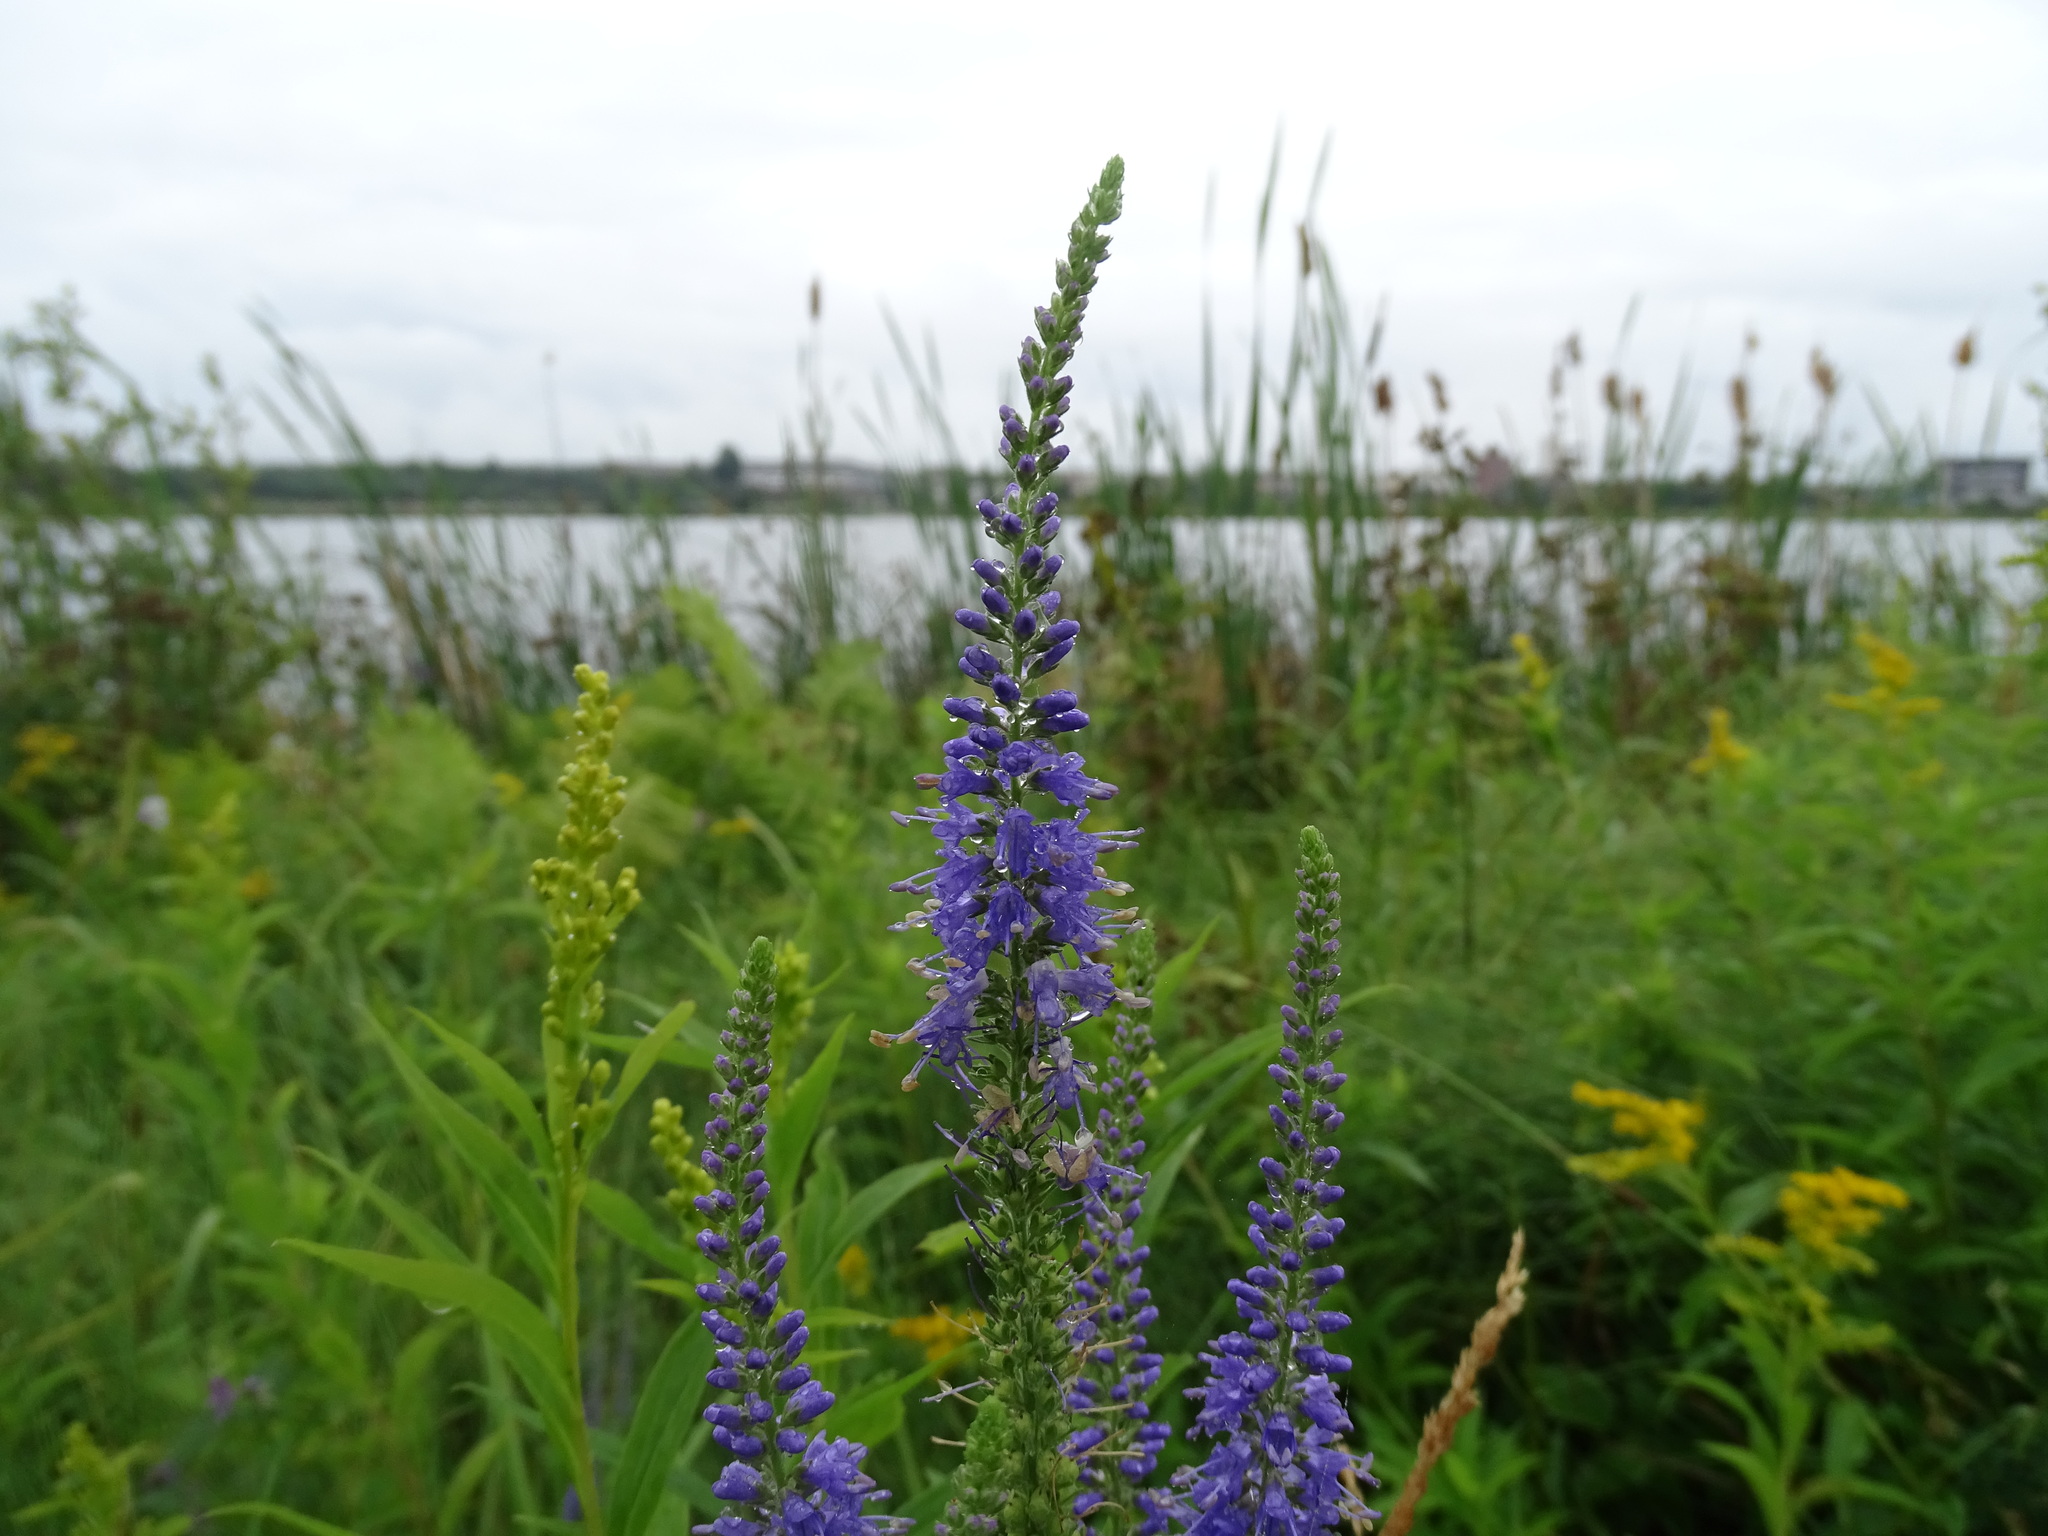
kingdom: Plantae
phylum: Tracheophyta
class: Magnoliopsida
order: Lamiales
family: Plantaginaceae
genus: Veronica
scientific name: Veronica longifolia
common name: Garden speedwell
